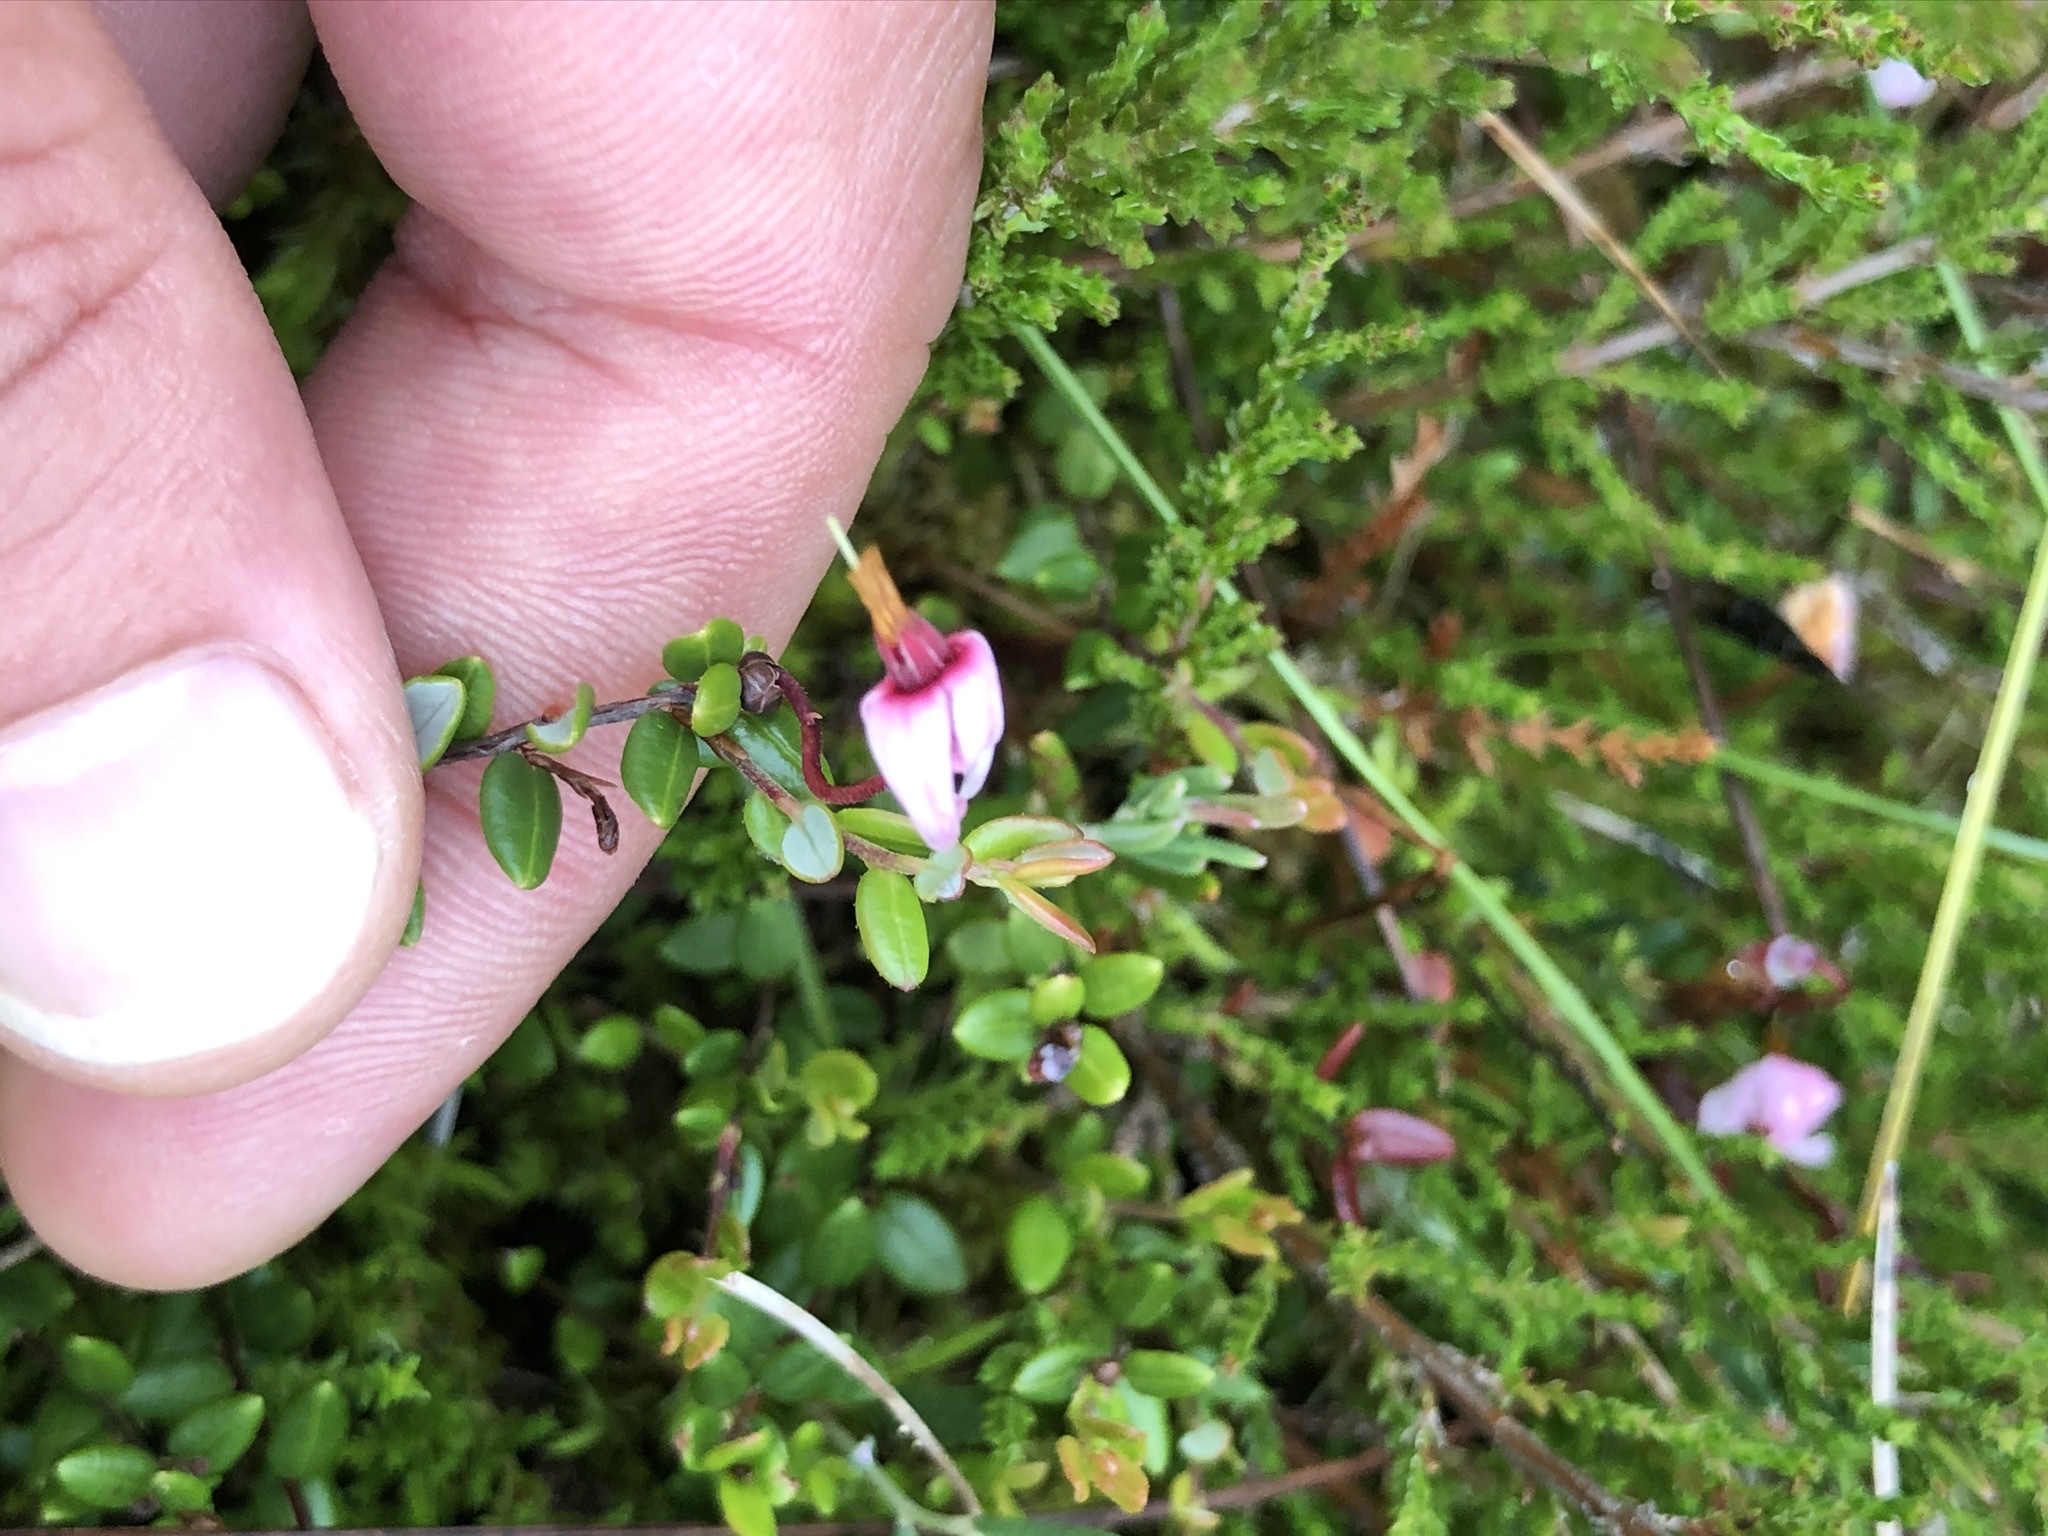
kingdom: Plantae
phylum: Tracheophyta
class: Magnoliopsida
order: Ericales
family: Ericaceae
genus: Vaccinium
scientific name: Vaccinium oxycoccos
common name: Cranberry
